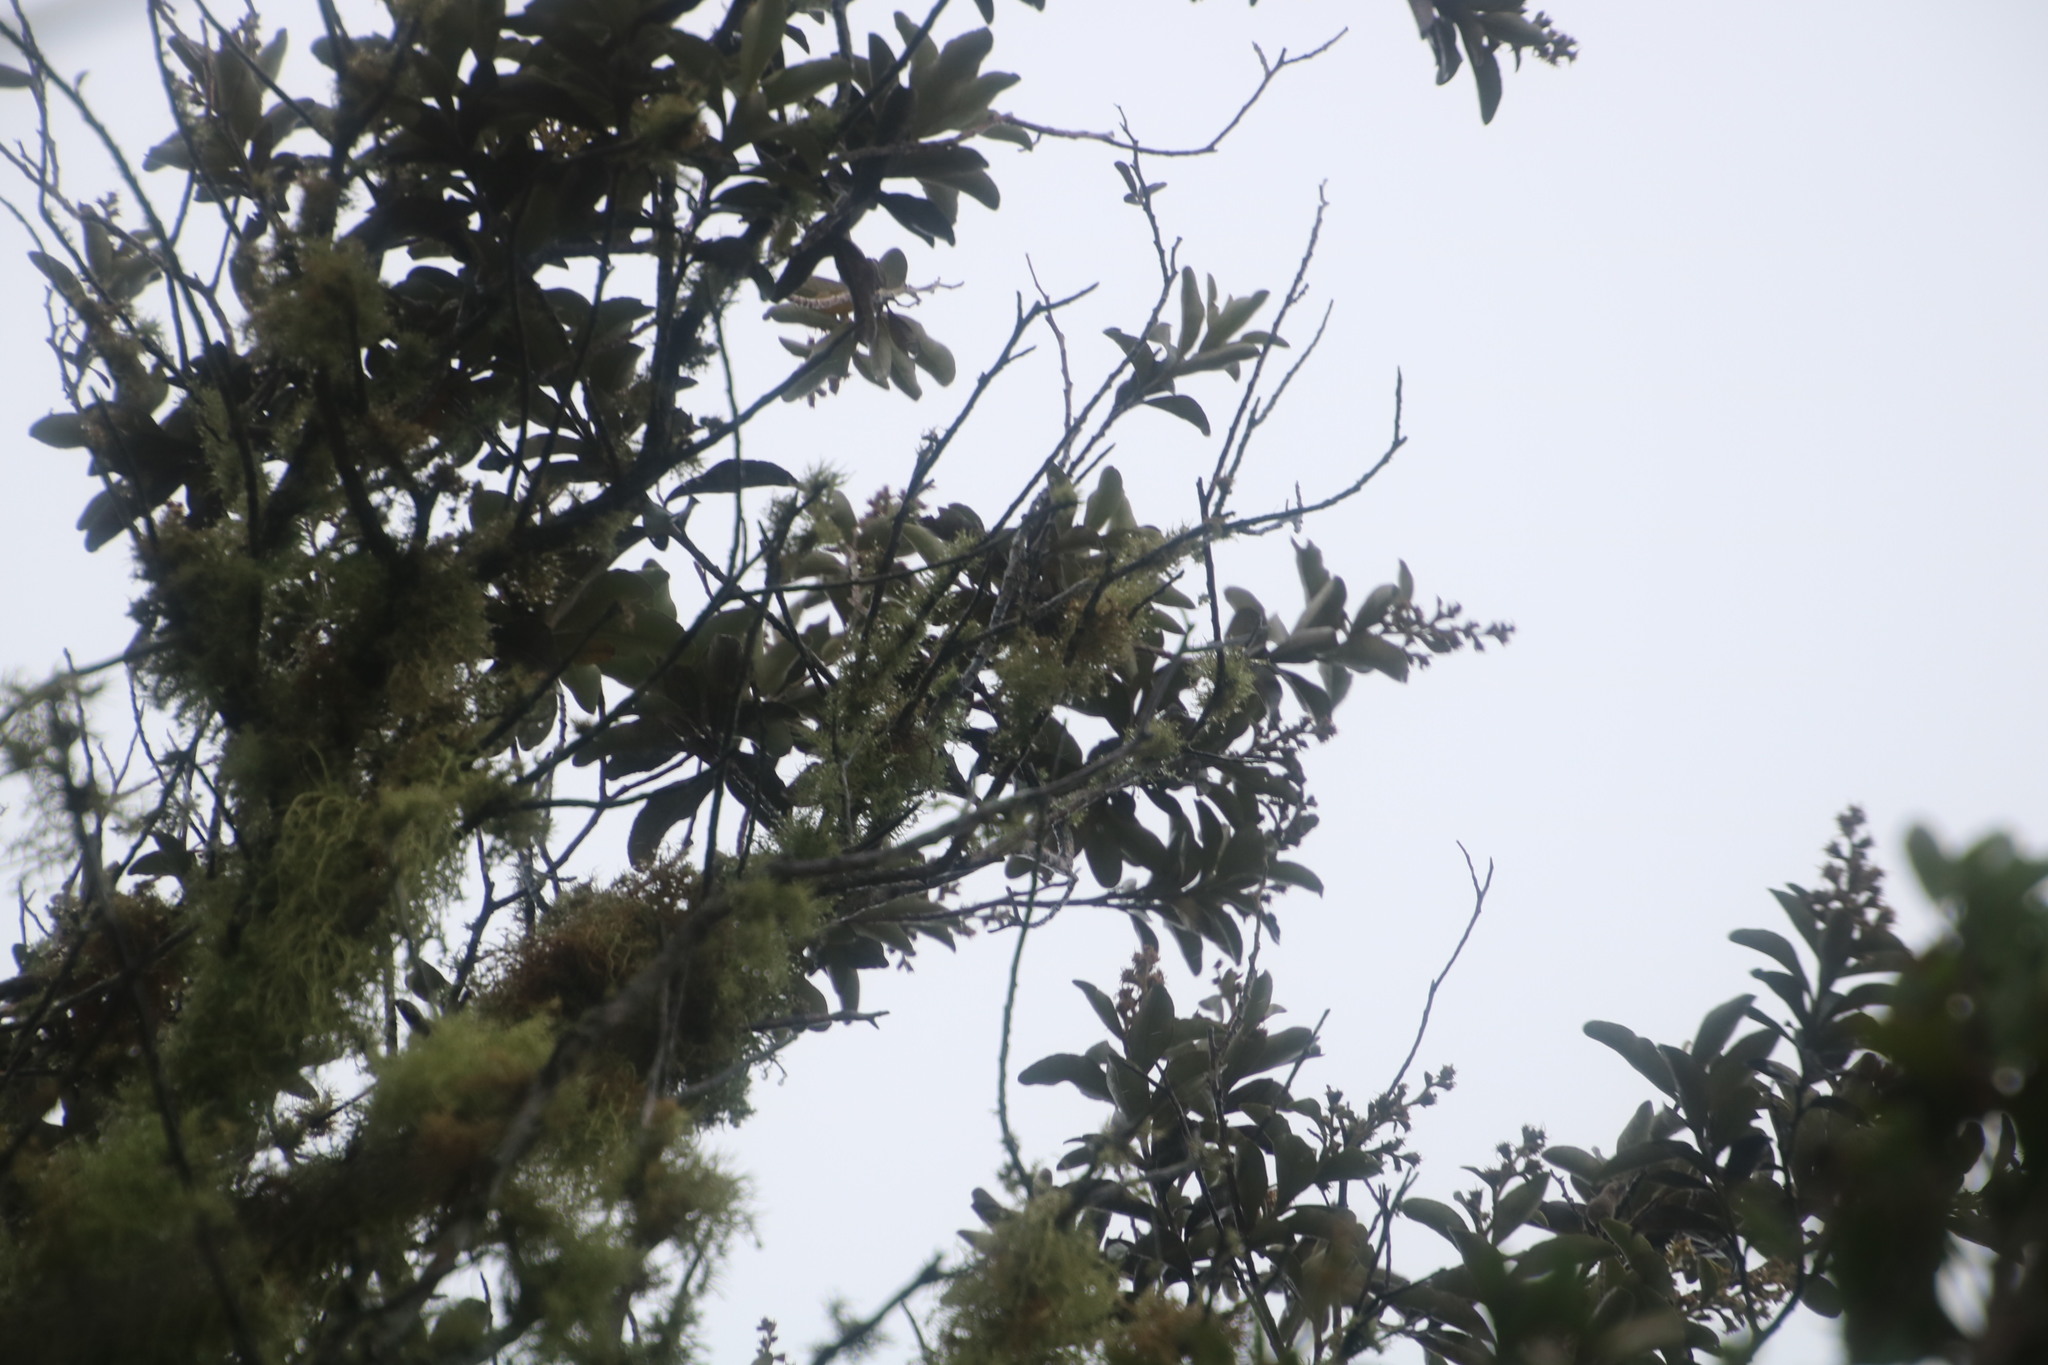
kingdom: Plantae
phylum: Tracheophyta
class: Magnoliopsida
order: Asterales
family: Asteraceae
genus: Tarchonanthus
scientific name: Tarchonanthus littoralis
